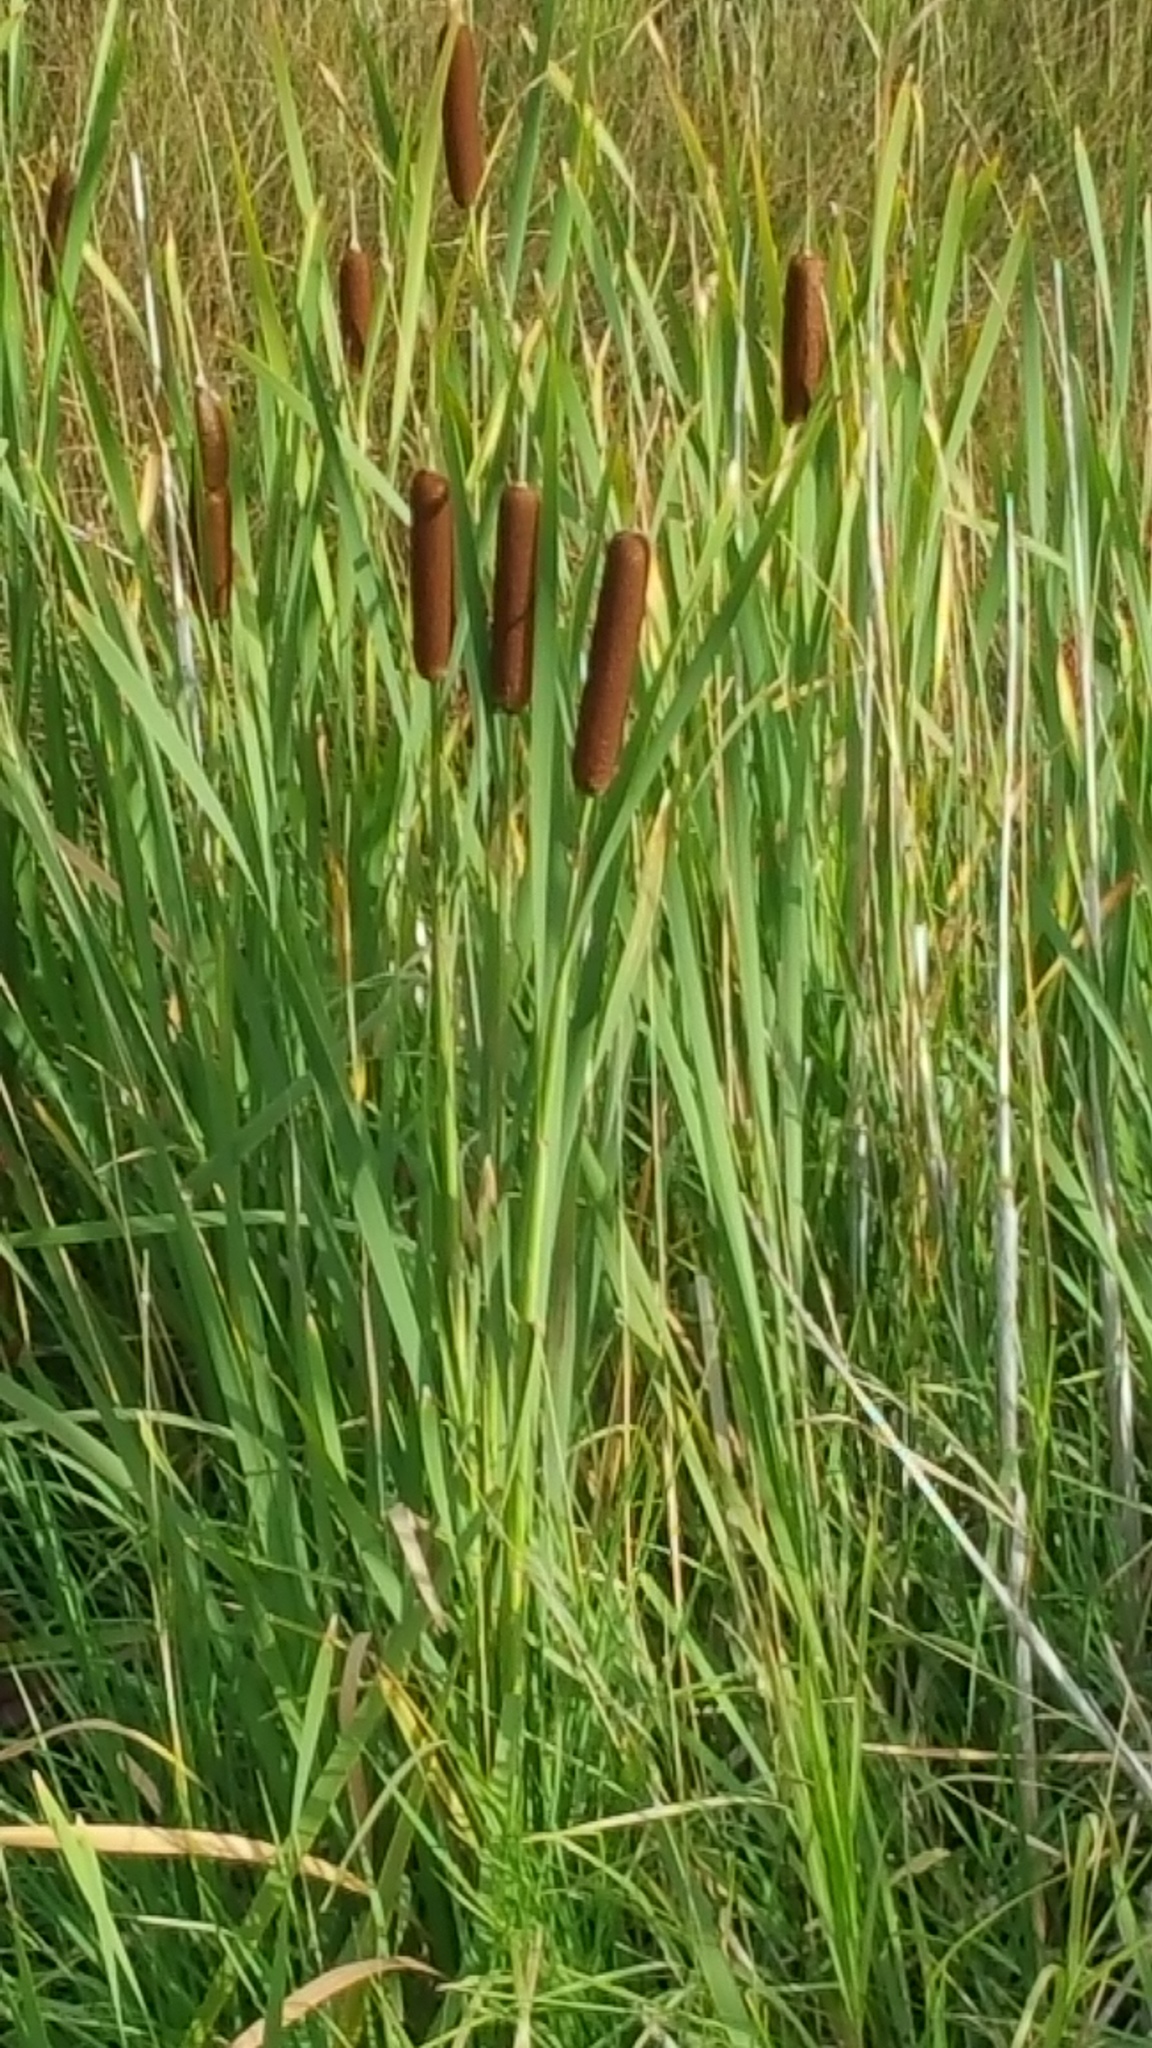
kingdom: Plantae
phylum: Tracheophyta
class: Liliopsida
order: Poales
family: Typhaceae
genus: Typha
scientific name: Typha latifolia
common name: Broadleaf cattail
